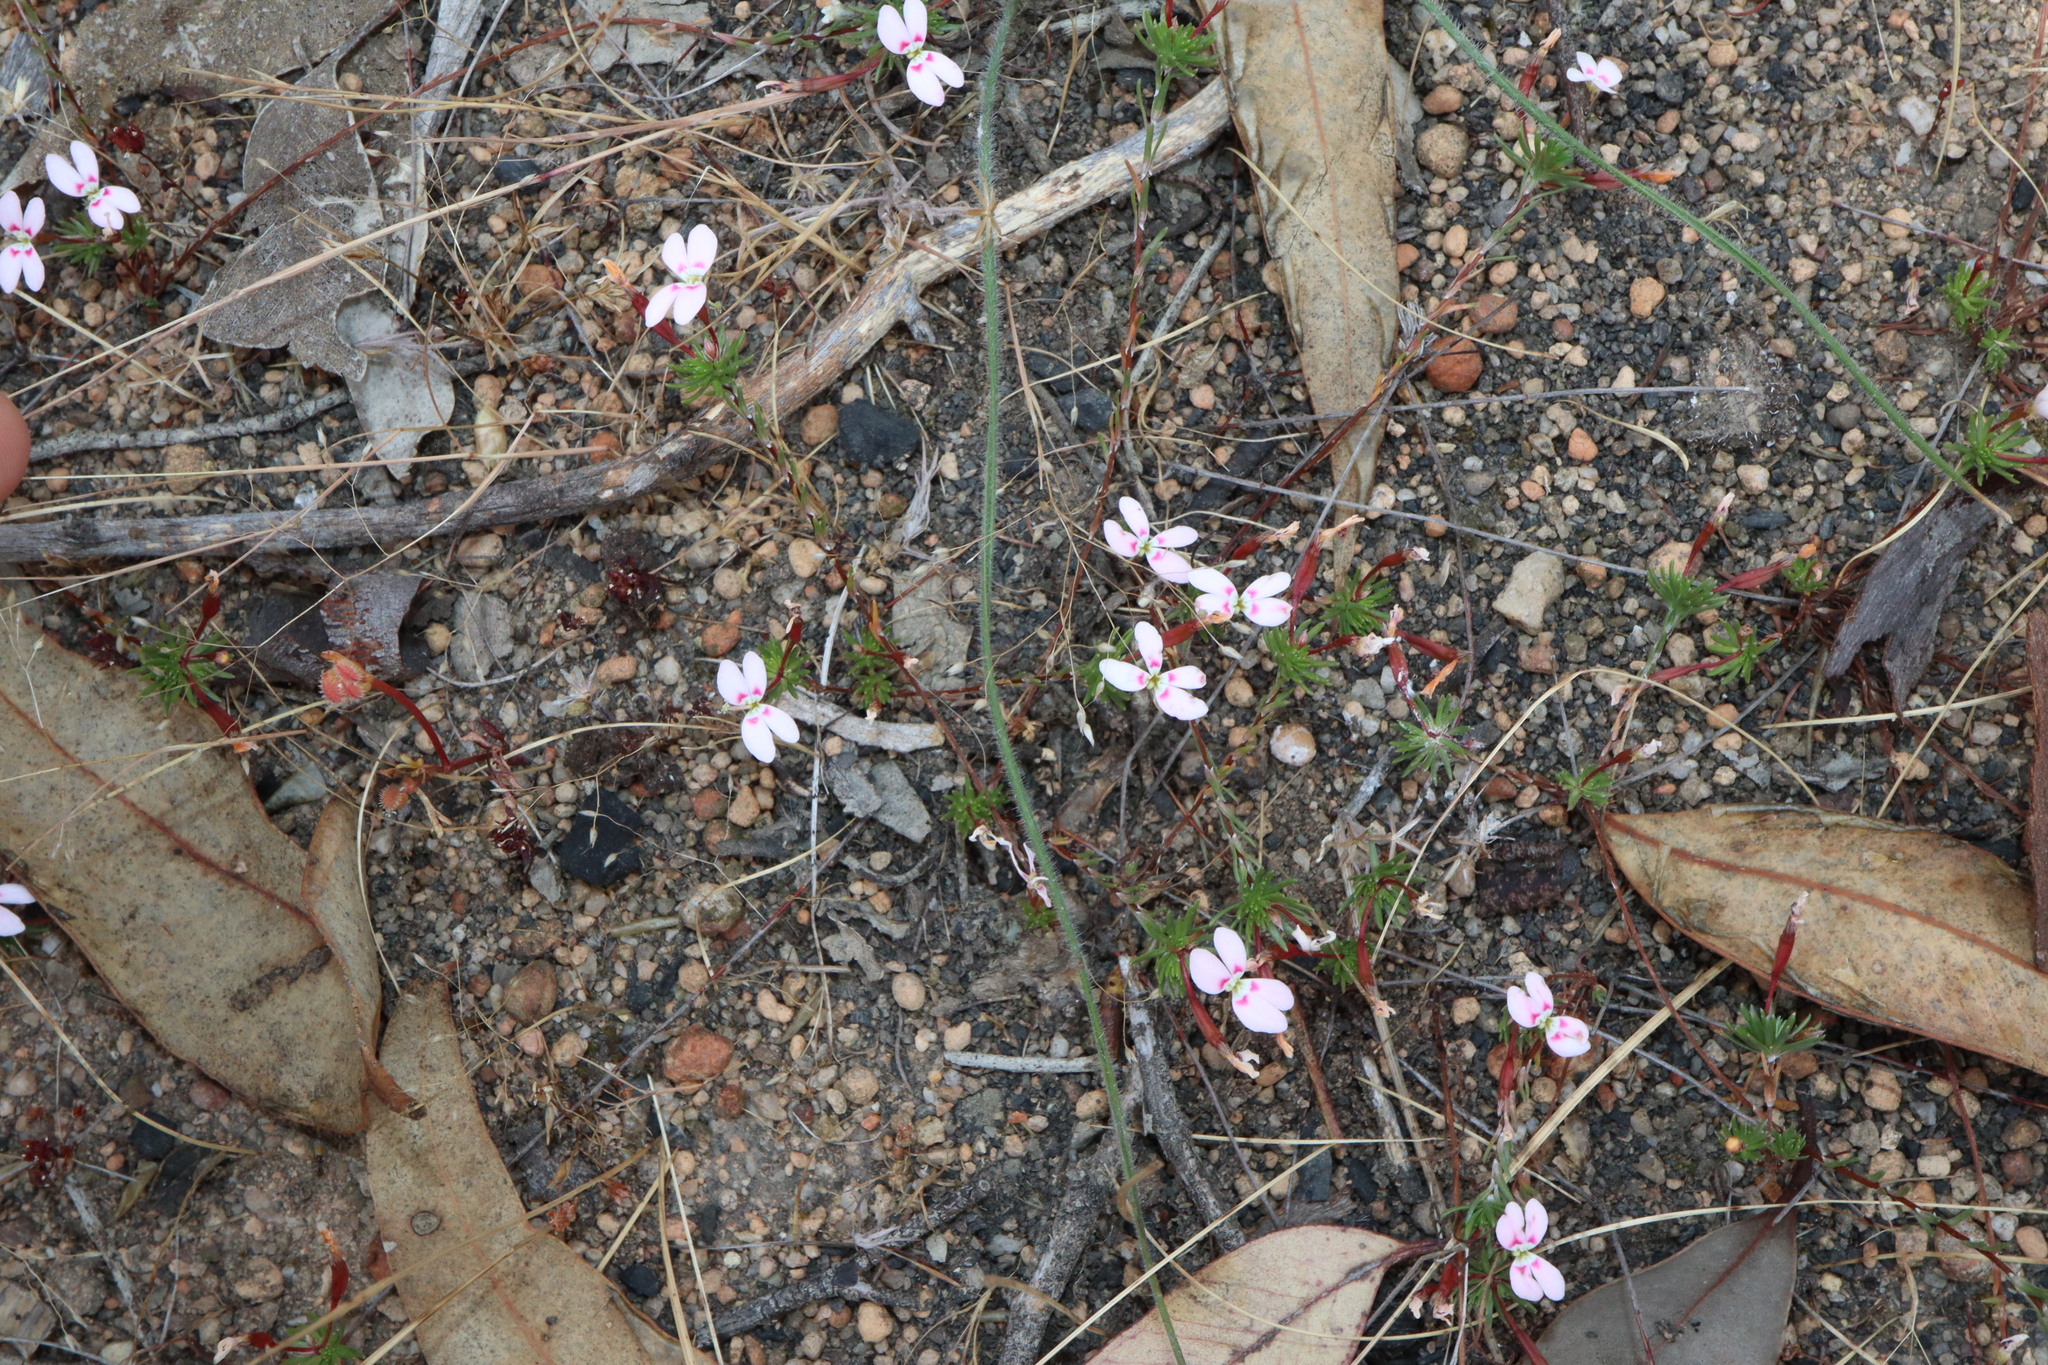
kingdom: Plantae
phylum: Tracheophyta
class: Magnoliopsida
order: Asterales
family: Stylidiaceae
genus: Stylidium
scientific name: Stylidium pingrupense
